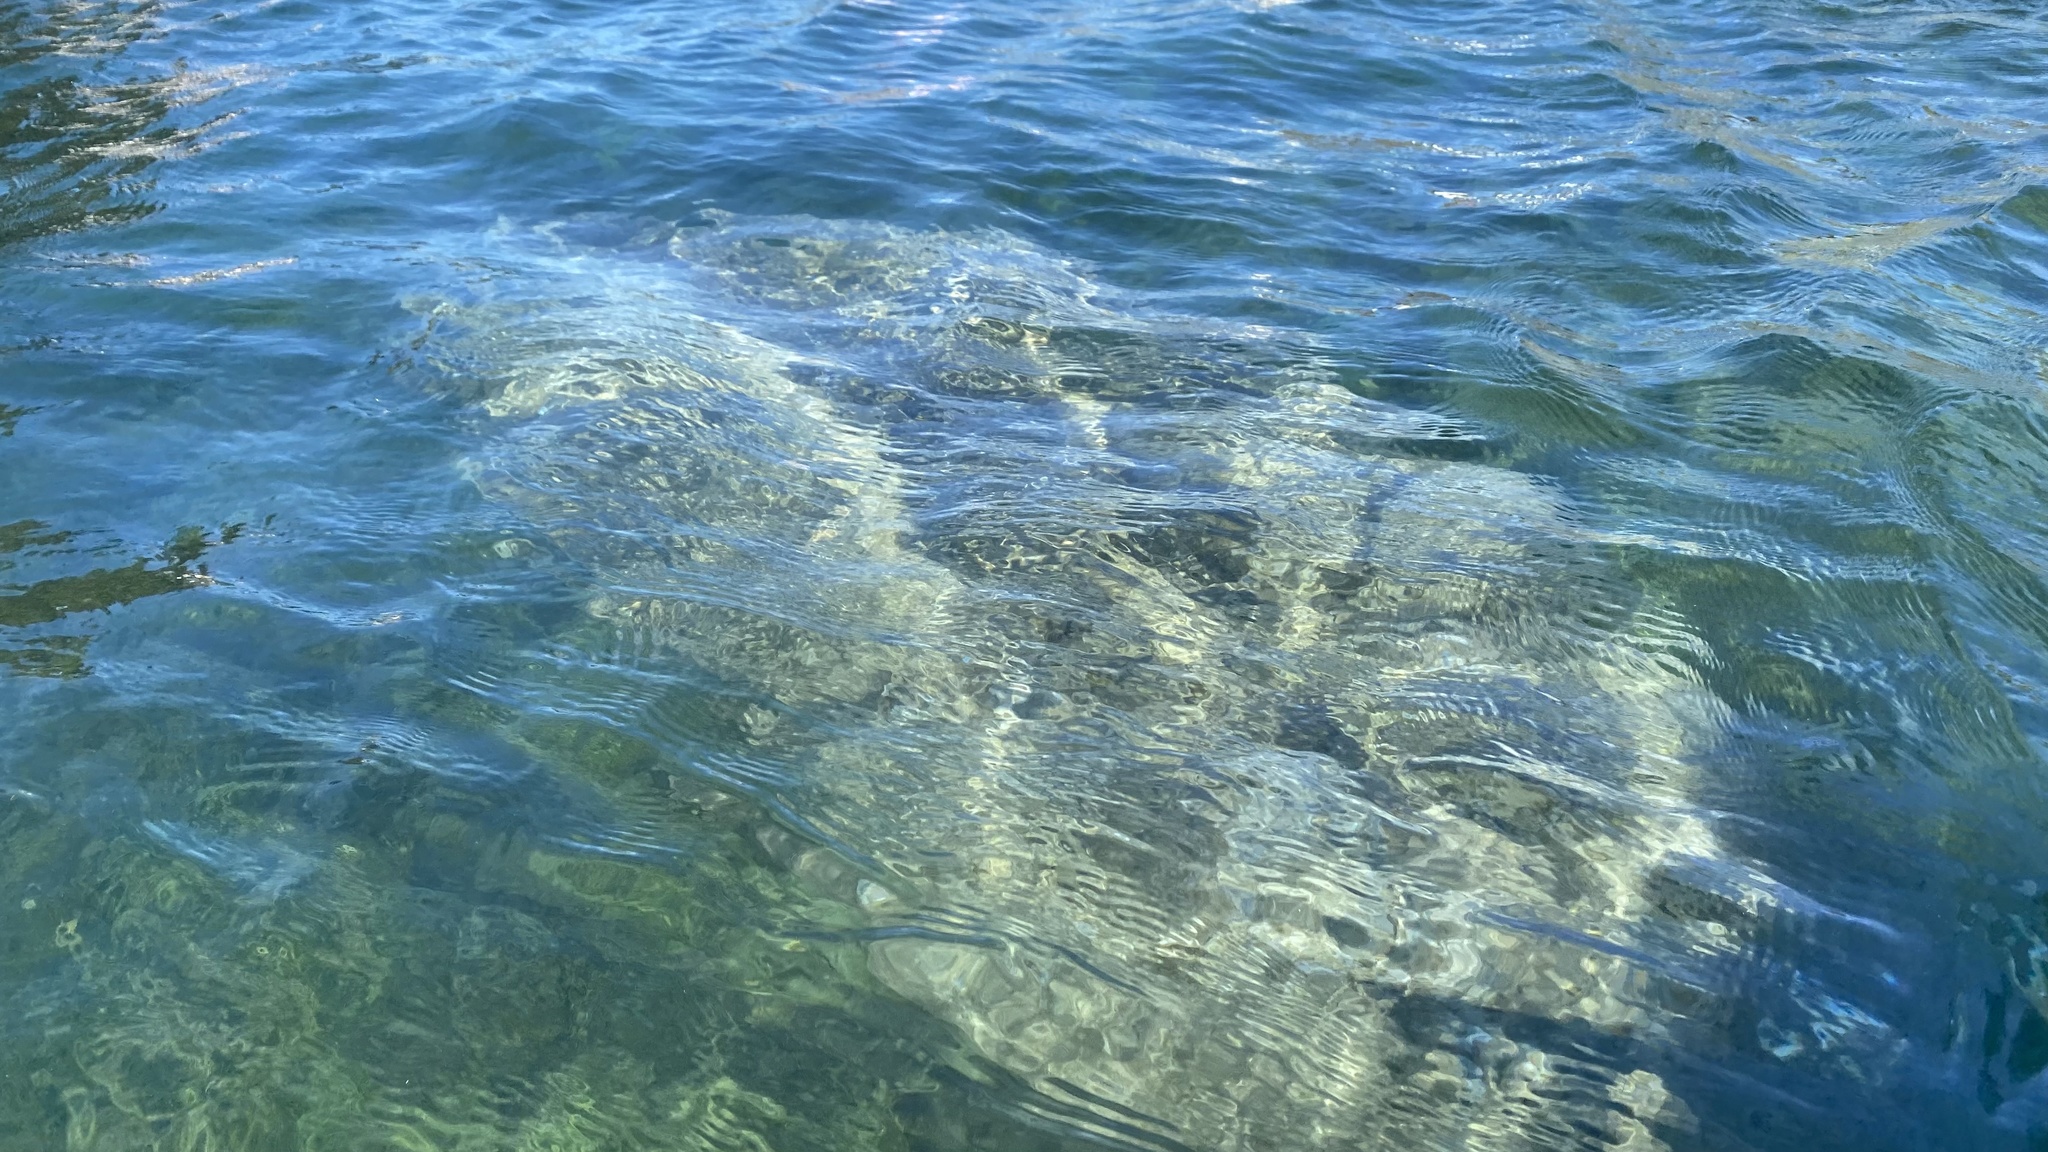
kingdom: Animalia
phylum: Chordata
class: Mammalia
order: Sirenia
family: Trichechidae
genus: Trichechus
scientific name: Trichechus manatus
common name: West indian manatee
